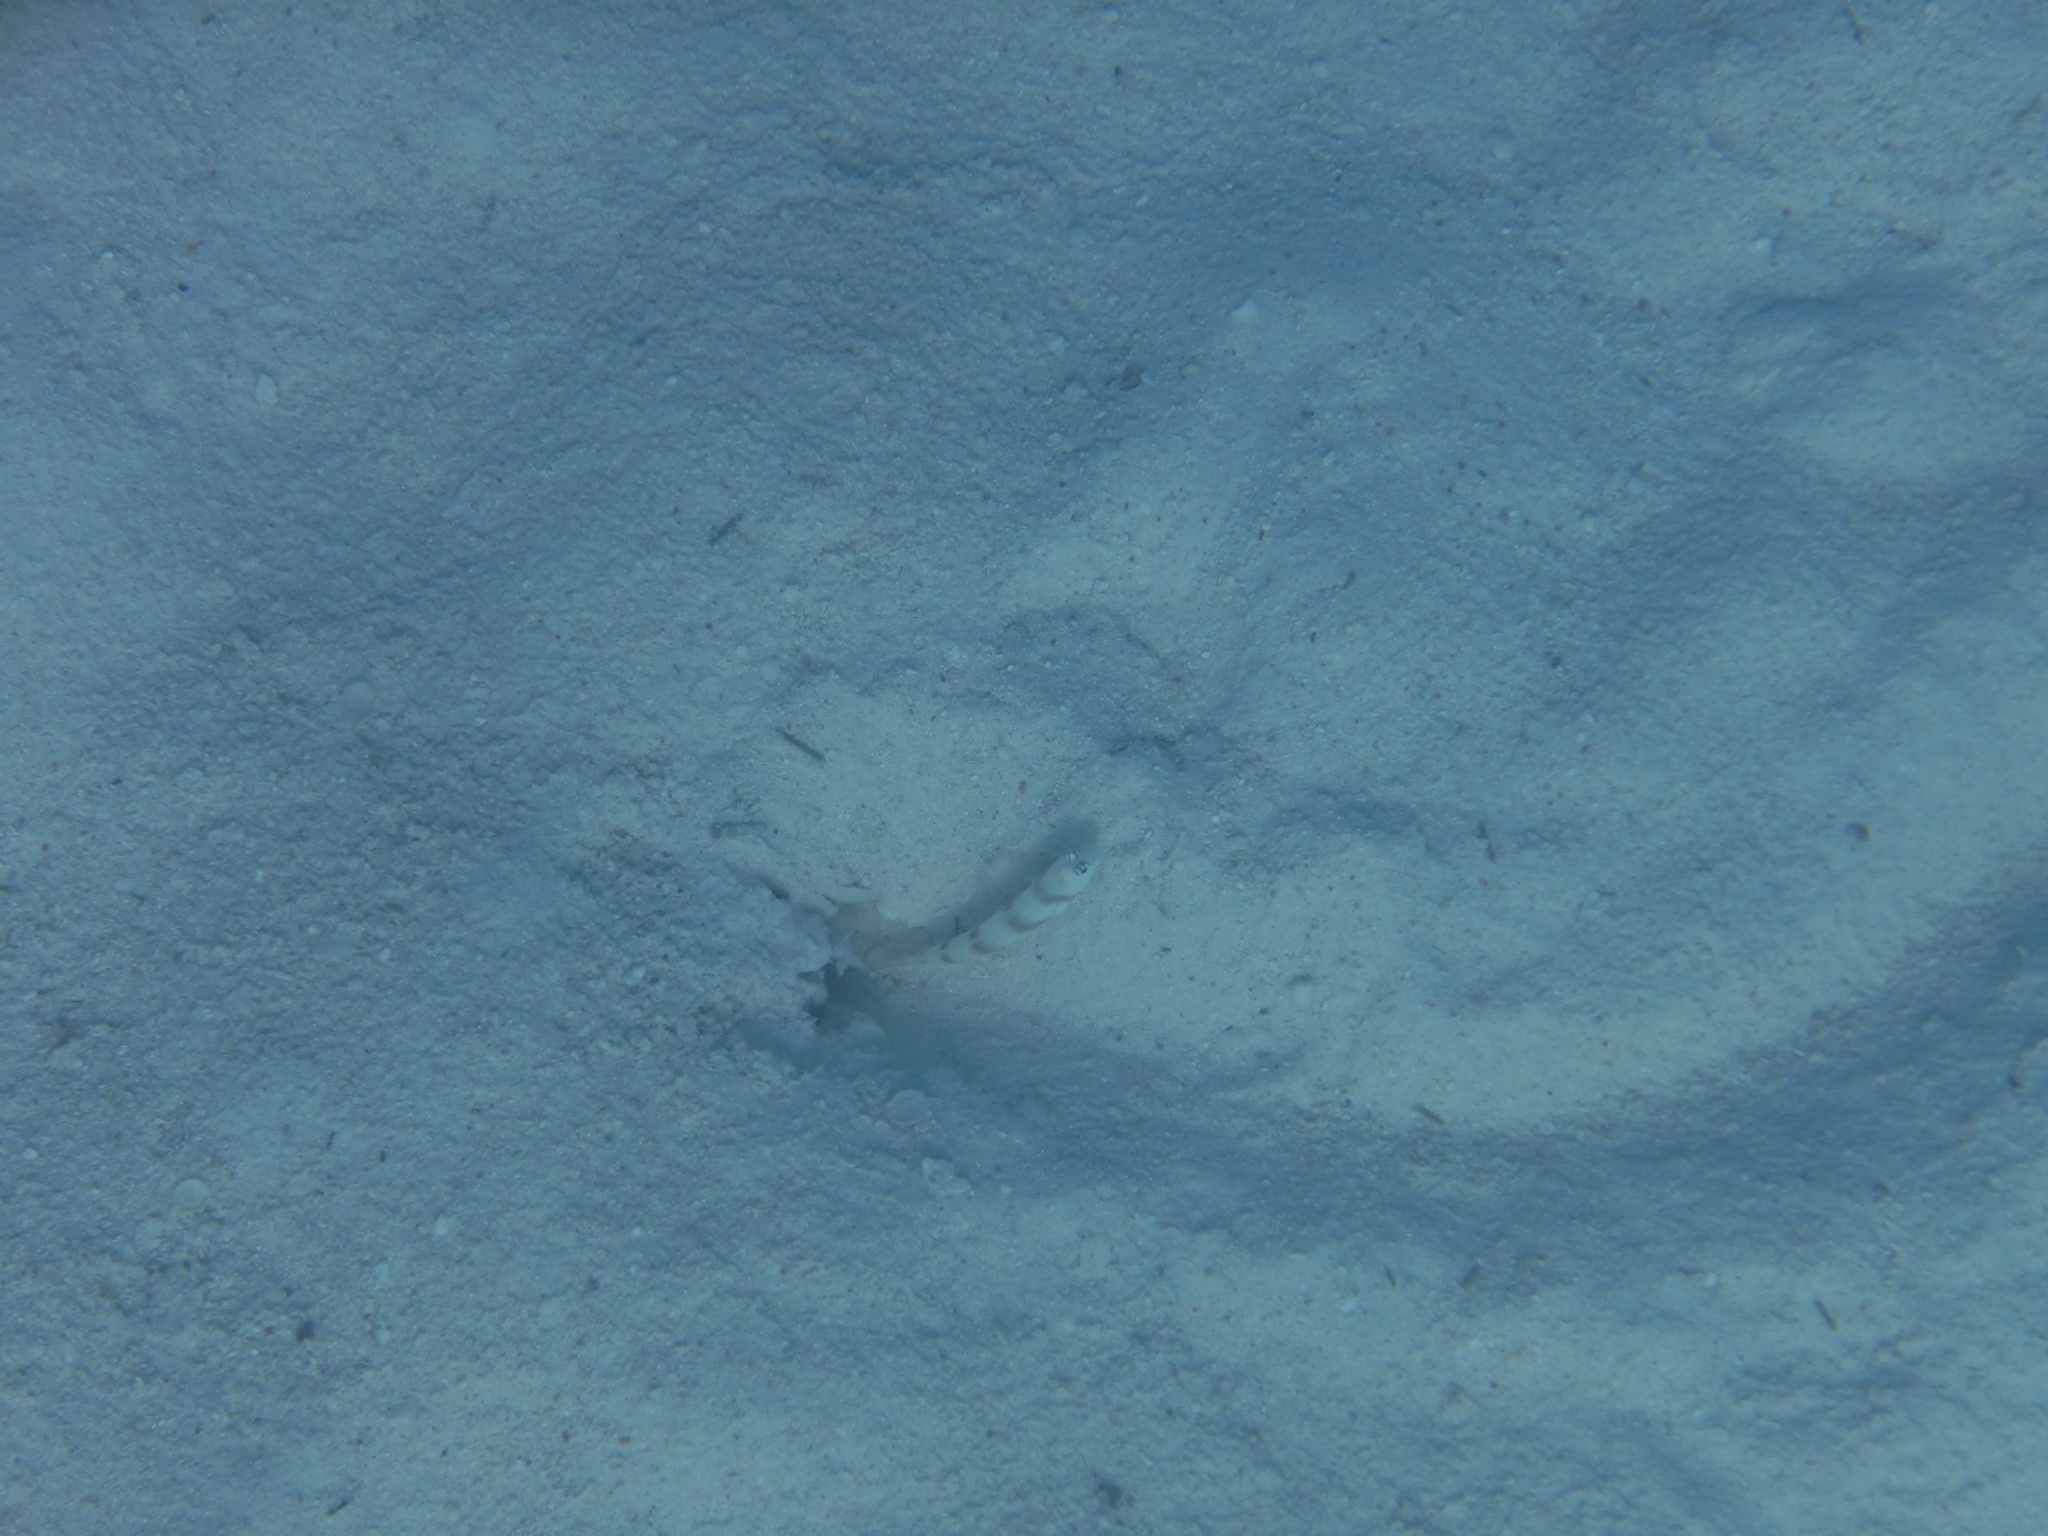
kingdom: Animalia
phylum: Chordata
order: Perciformes
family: Gobiidae
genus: Amblyeleotris
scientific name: Amblyeleotris steinitzi
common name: Steinitz' prawn-goby
